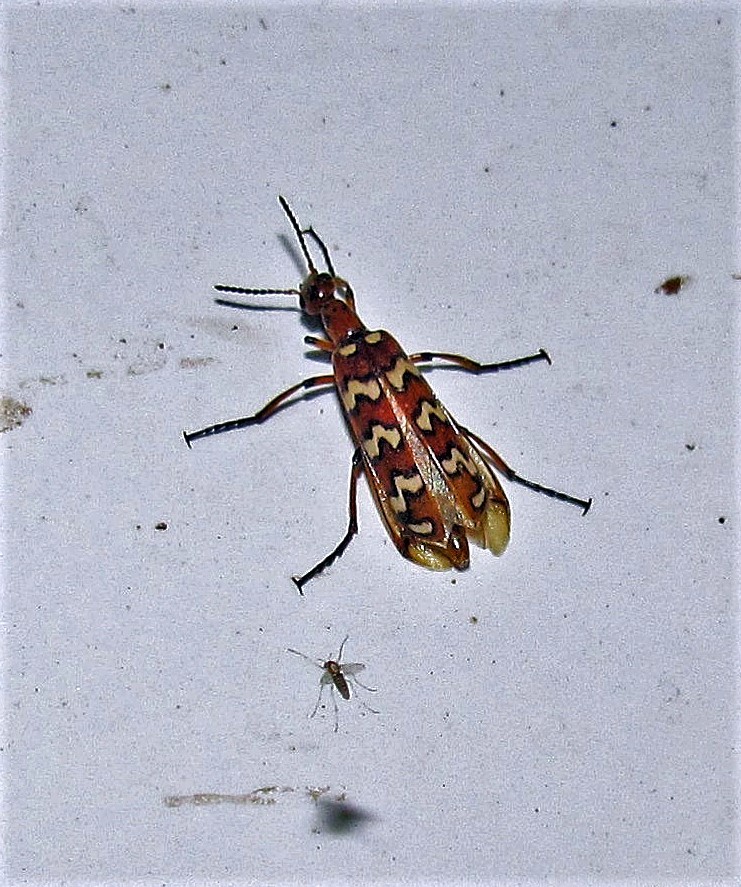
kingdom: Animalia
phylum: Arthropoda
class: Insecta
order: Coleoptera
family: Meloidae
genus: Pyrota
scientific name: Pyrota
